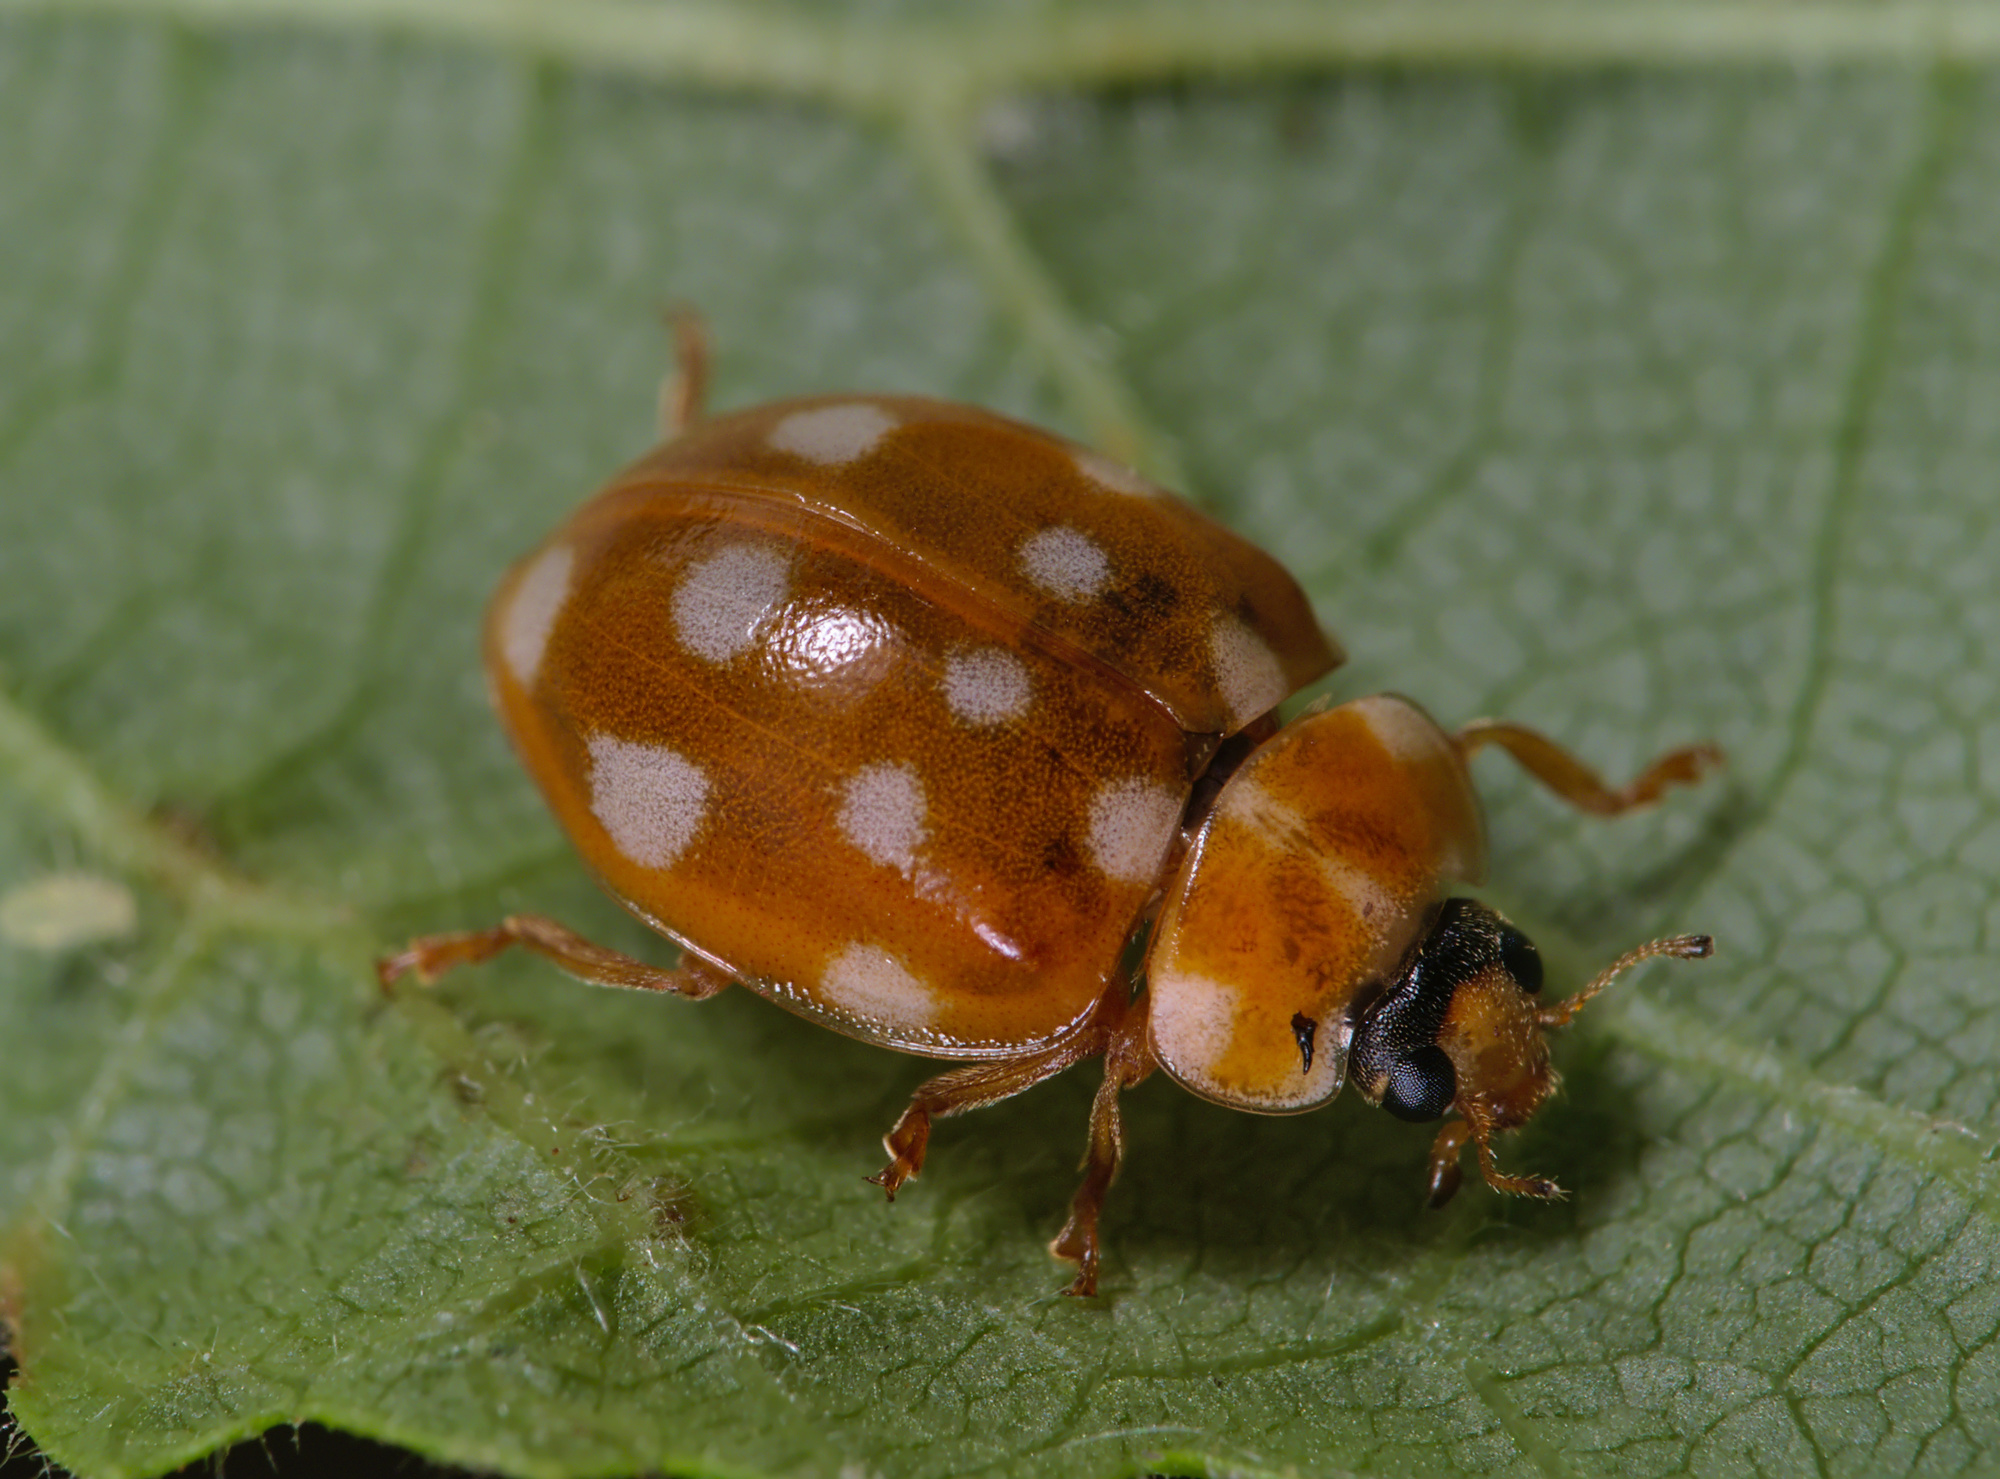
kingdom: Animalia
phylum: Arthropoda
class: Insecta
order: Coleoptera
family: Coccinellidae
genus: Calvia
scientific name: Calvia quatuordecimguttata
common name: Cream-spot ladybird
